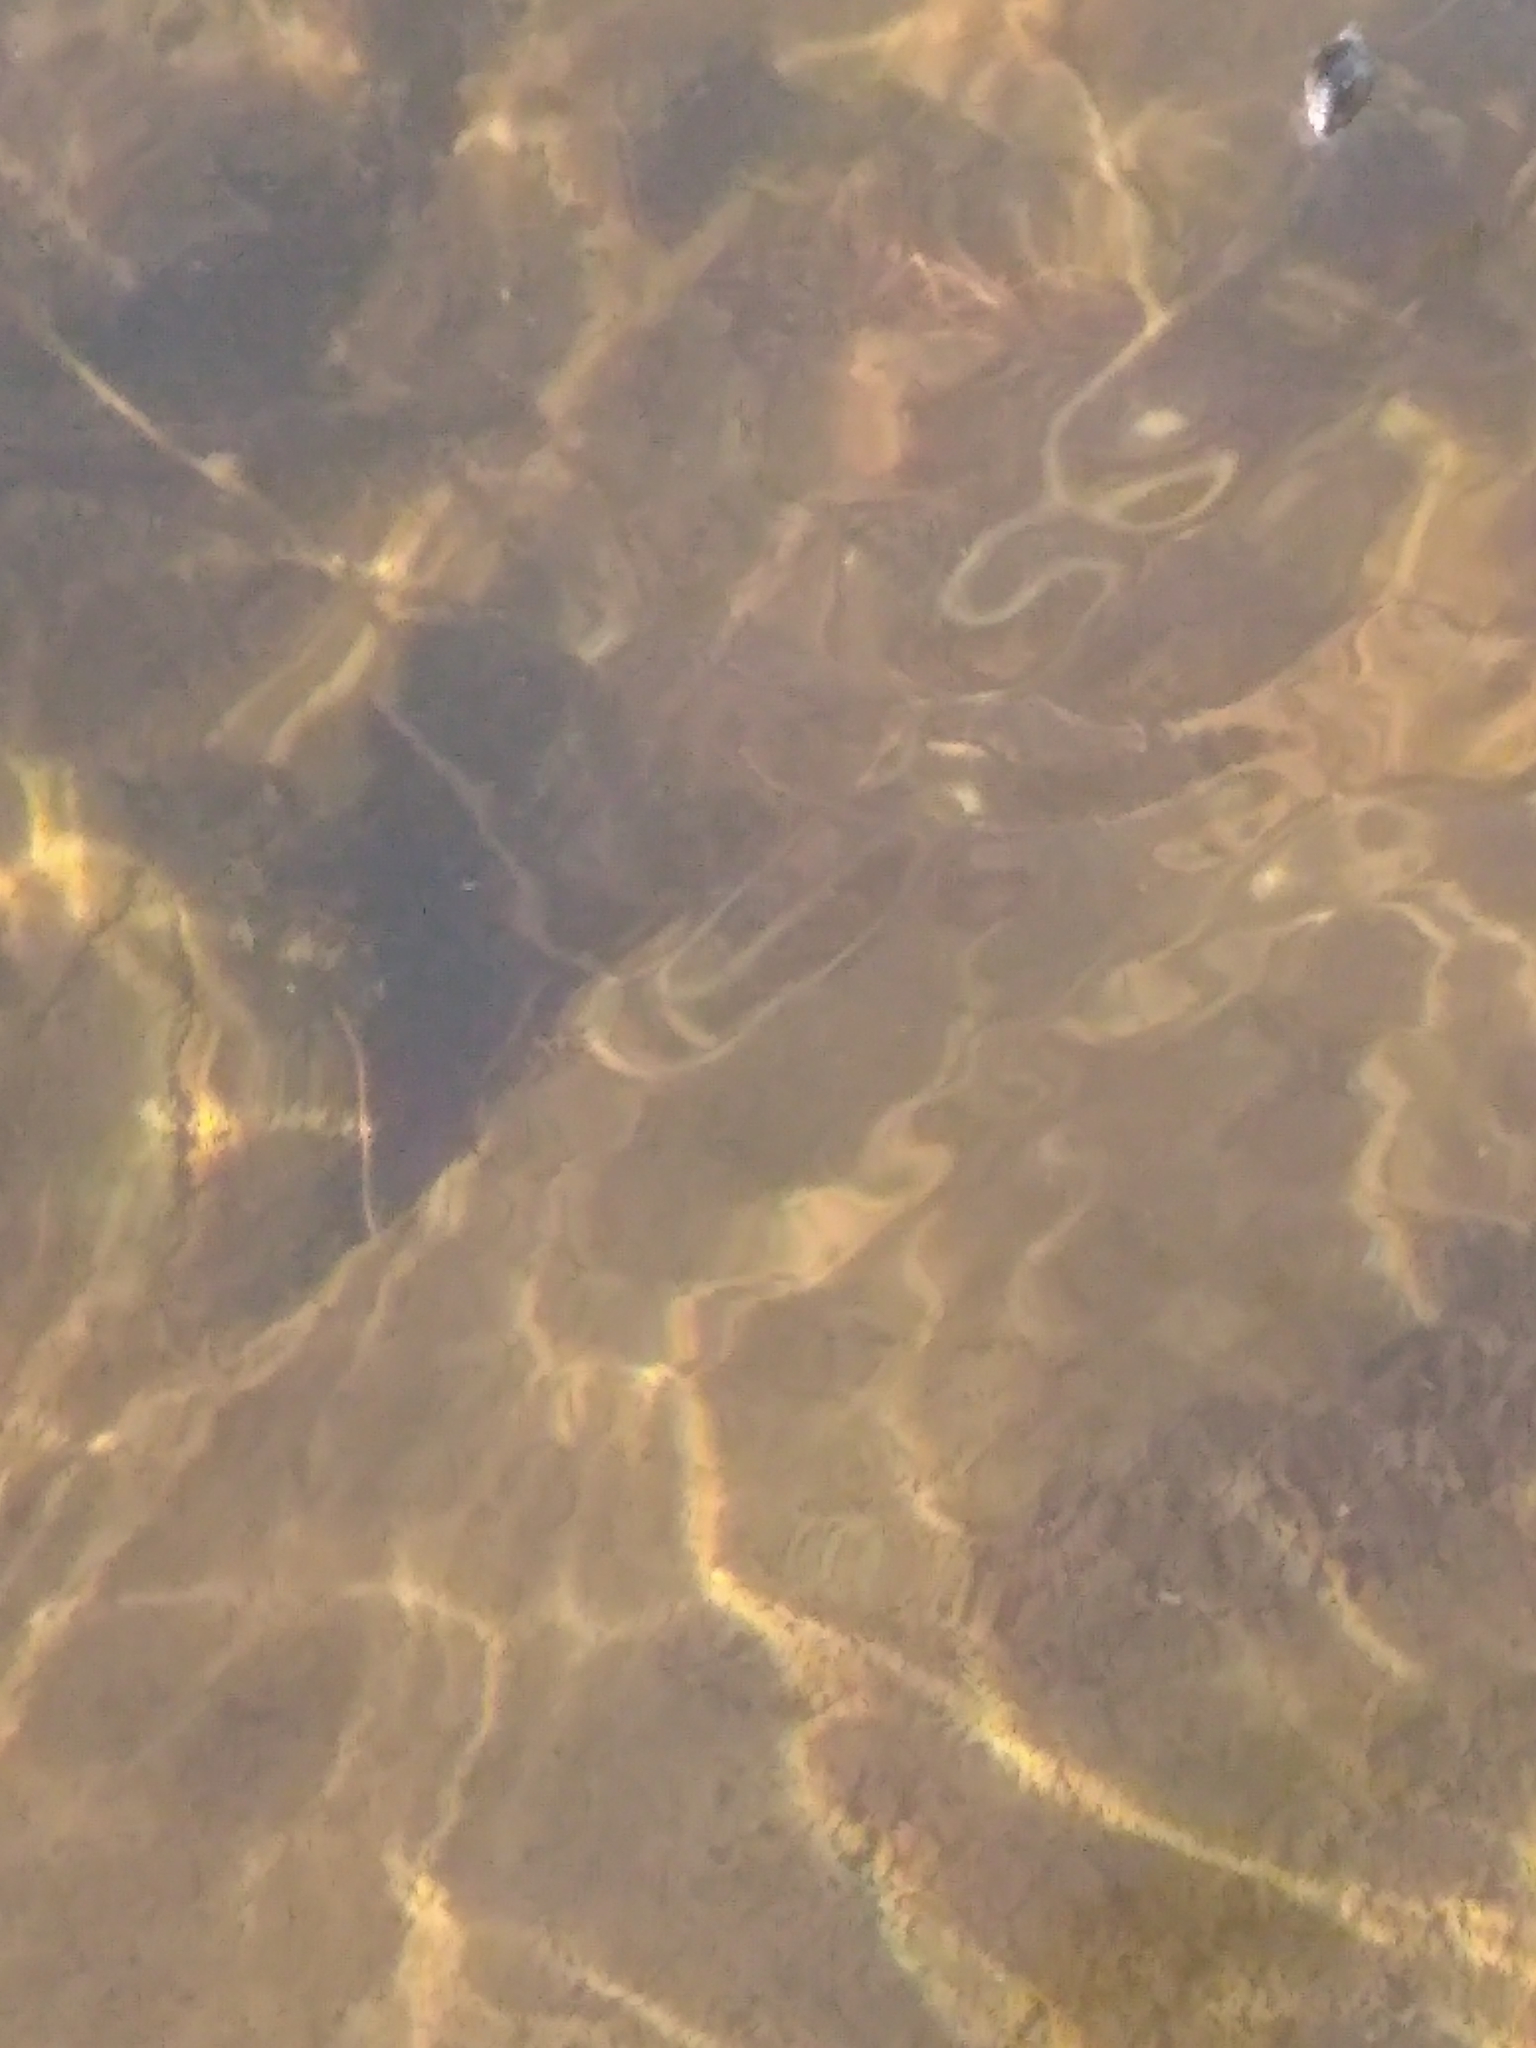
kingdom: Animalia
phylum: Arthropoda
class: Insecta
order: Coleoptera
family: Gyrinidae
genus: Dineutus
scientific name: Dineutus
